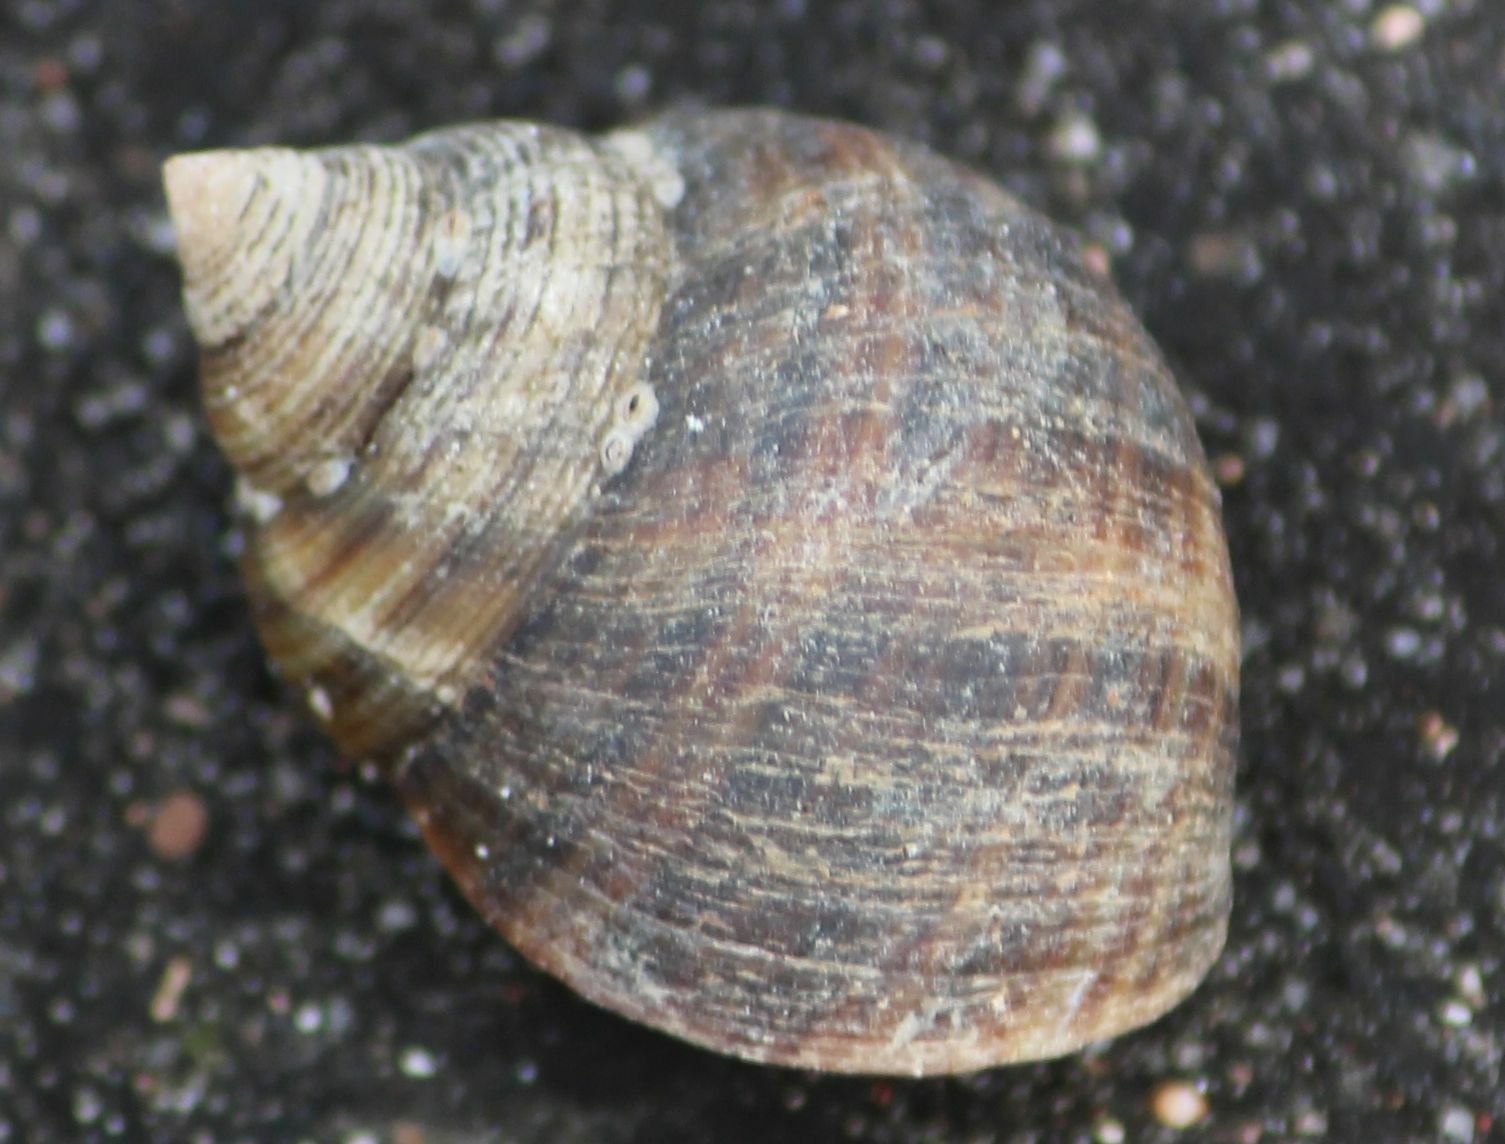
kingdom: Animalia
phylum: Mollusca
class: Gastropoda
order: Littorinimorpha
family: Littorinidae
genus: Littorina
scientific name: Littorina littorea
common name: Common periwinkle
